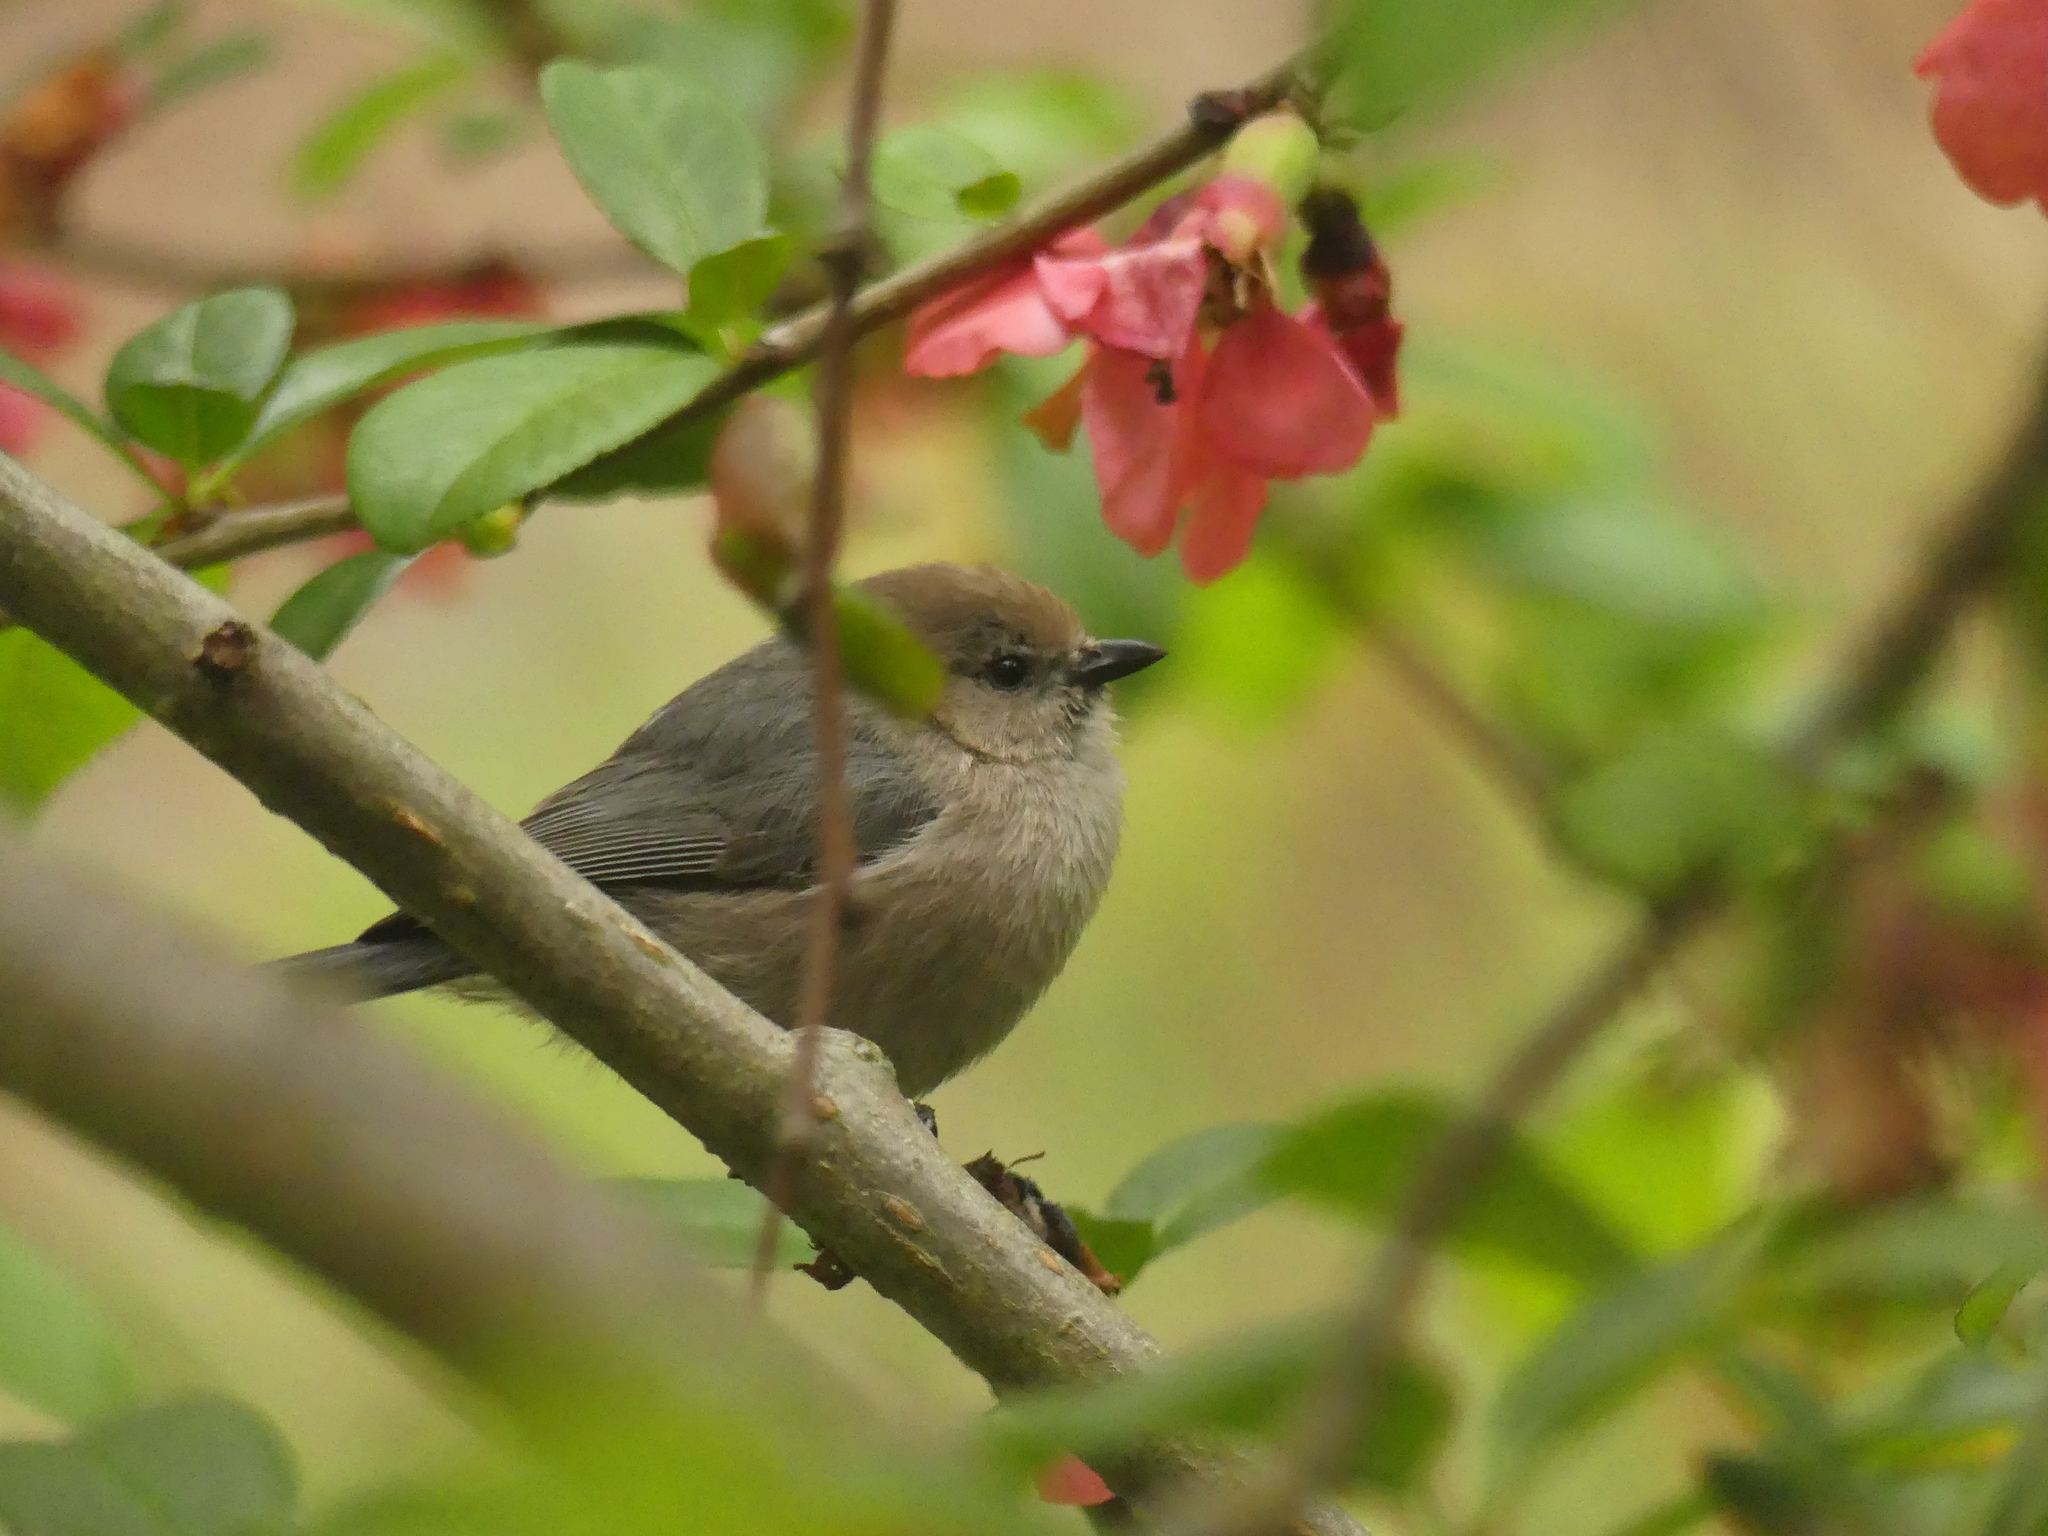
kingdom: Animalia
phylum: Chordata
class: Aves
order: Passeriformes
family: Aegithalidae
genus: Psaltriparus
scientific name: Psaltriparus minimus
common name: American bushtit
